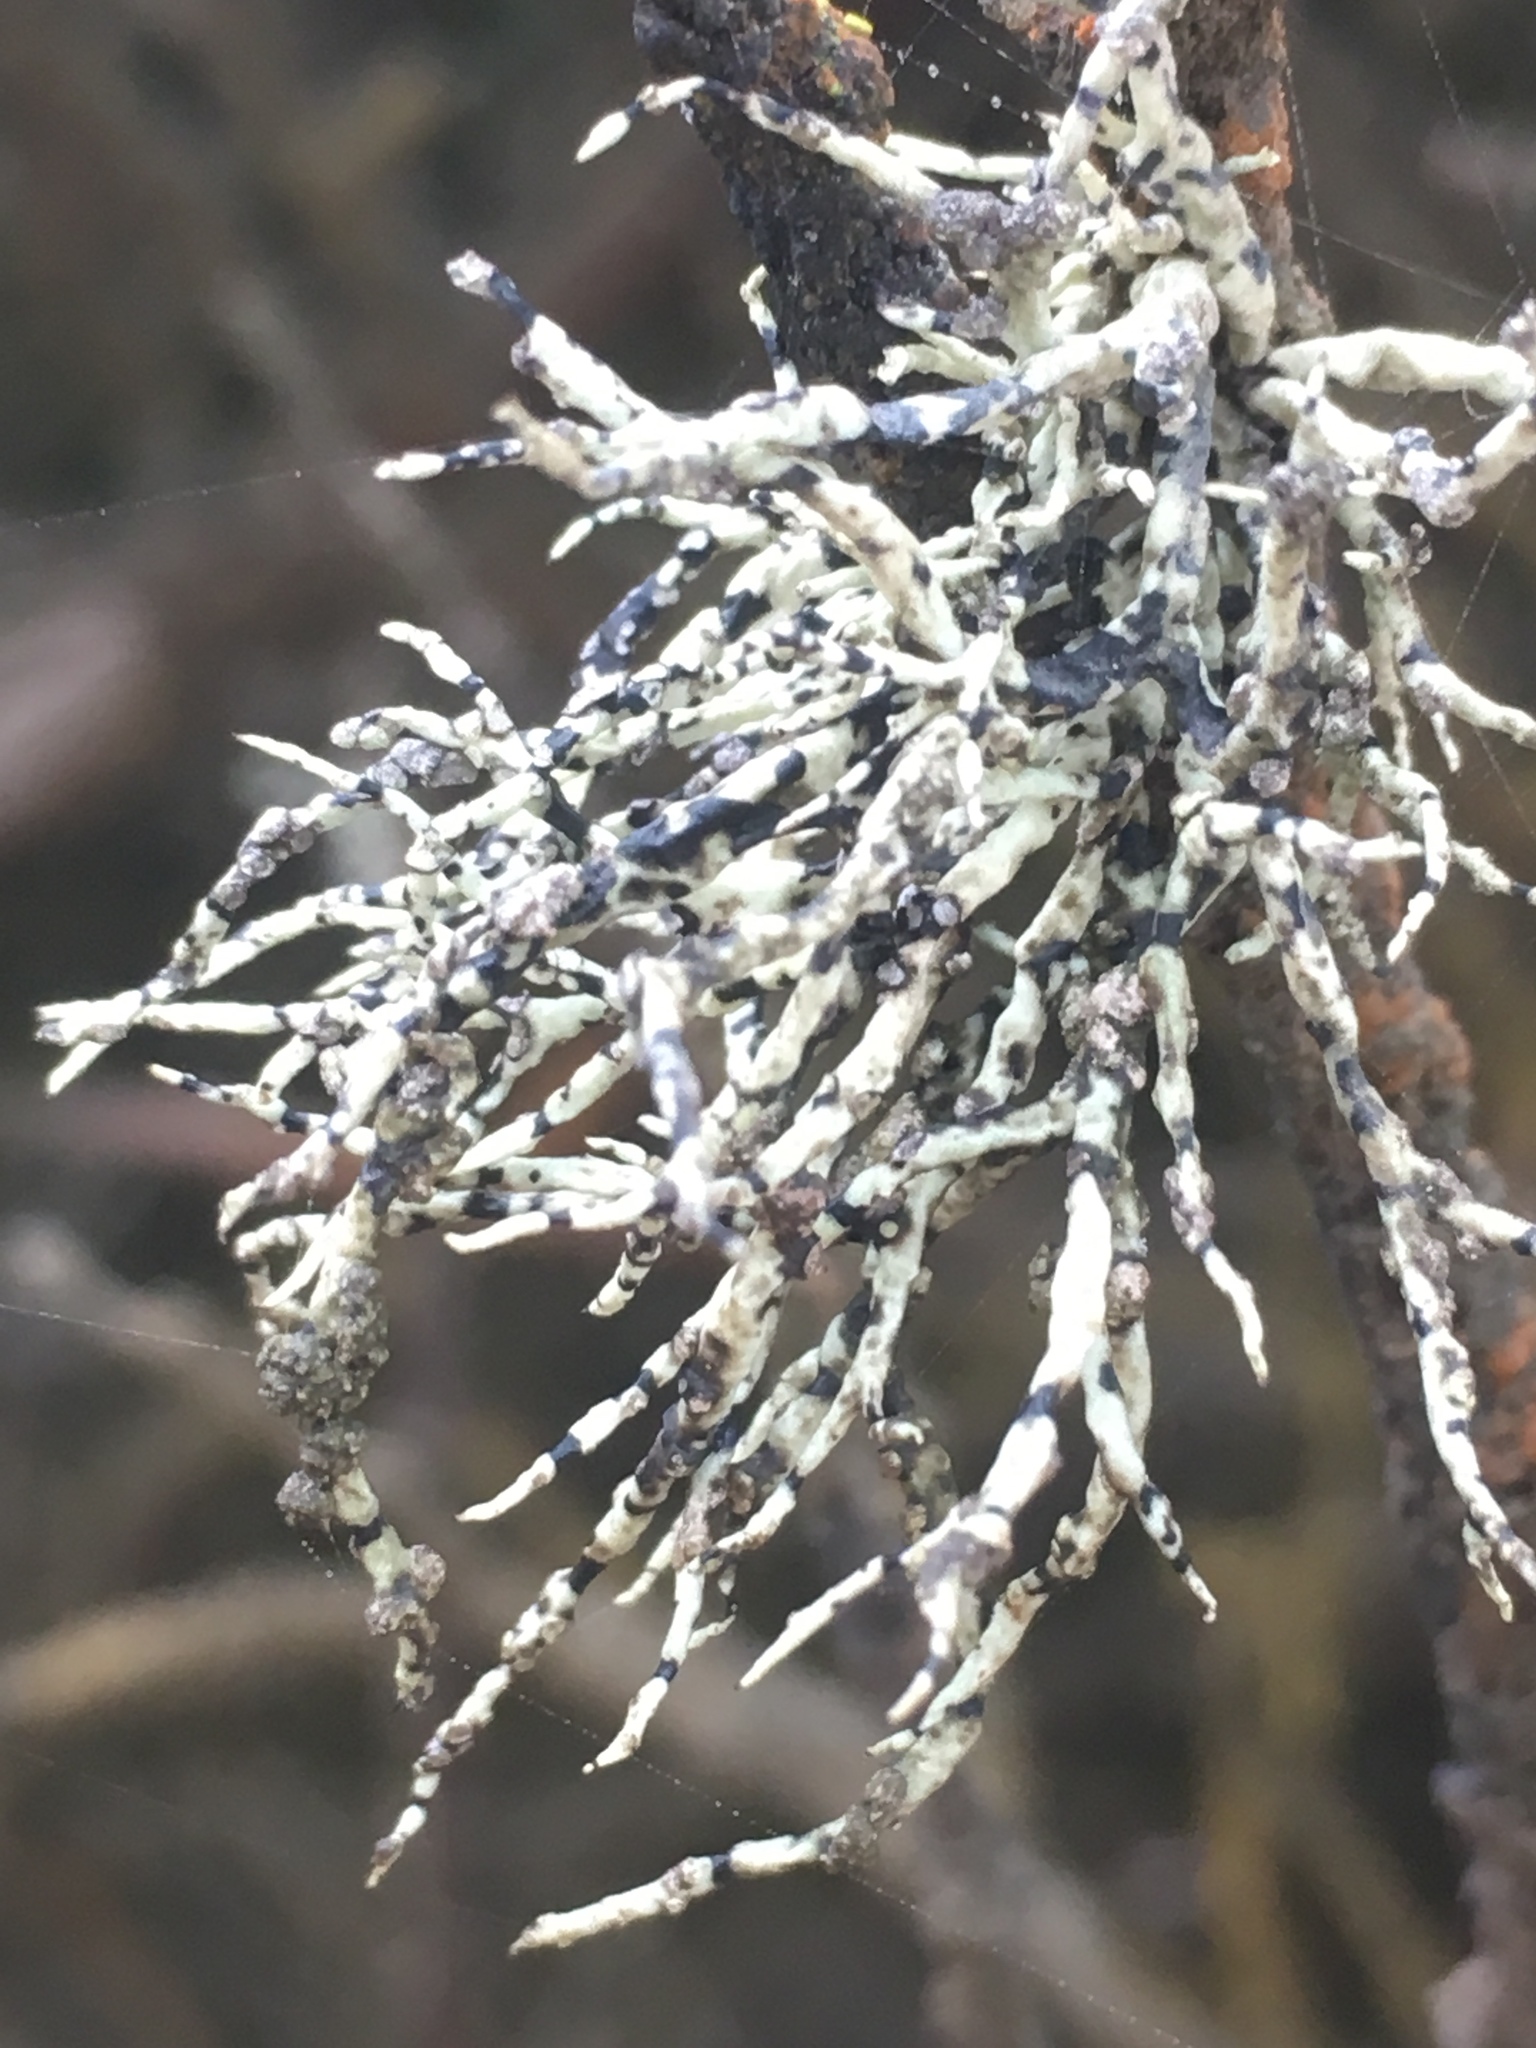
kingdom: Fungi
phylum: Ascomycota
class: Lecanoromycetes
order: Lecanorales
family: Ramalinaceae
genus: Niebla
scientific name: Niebla cephalota
